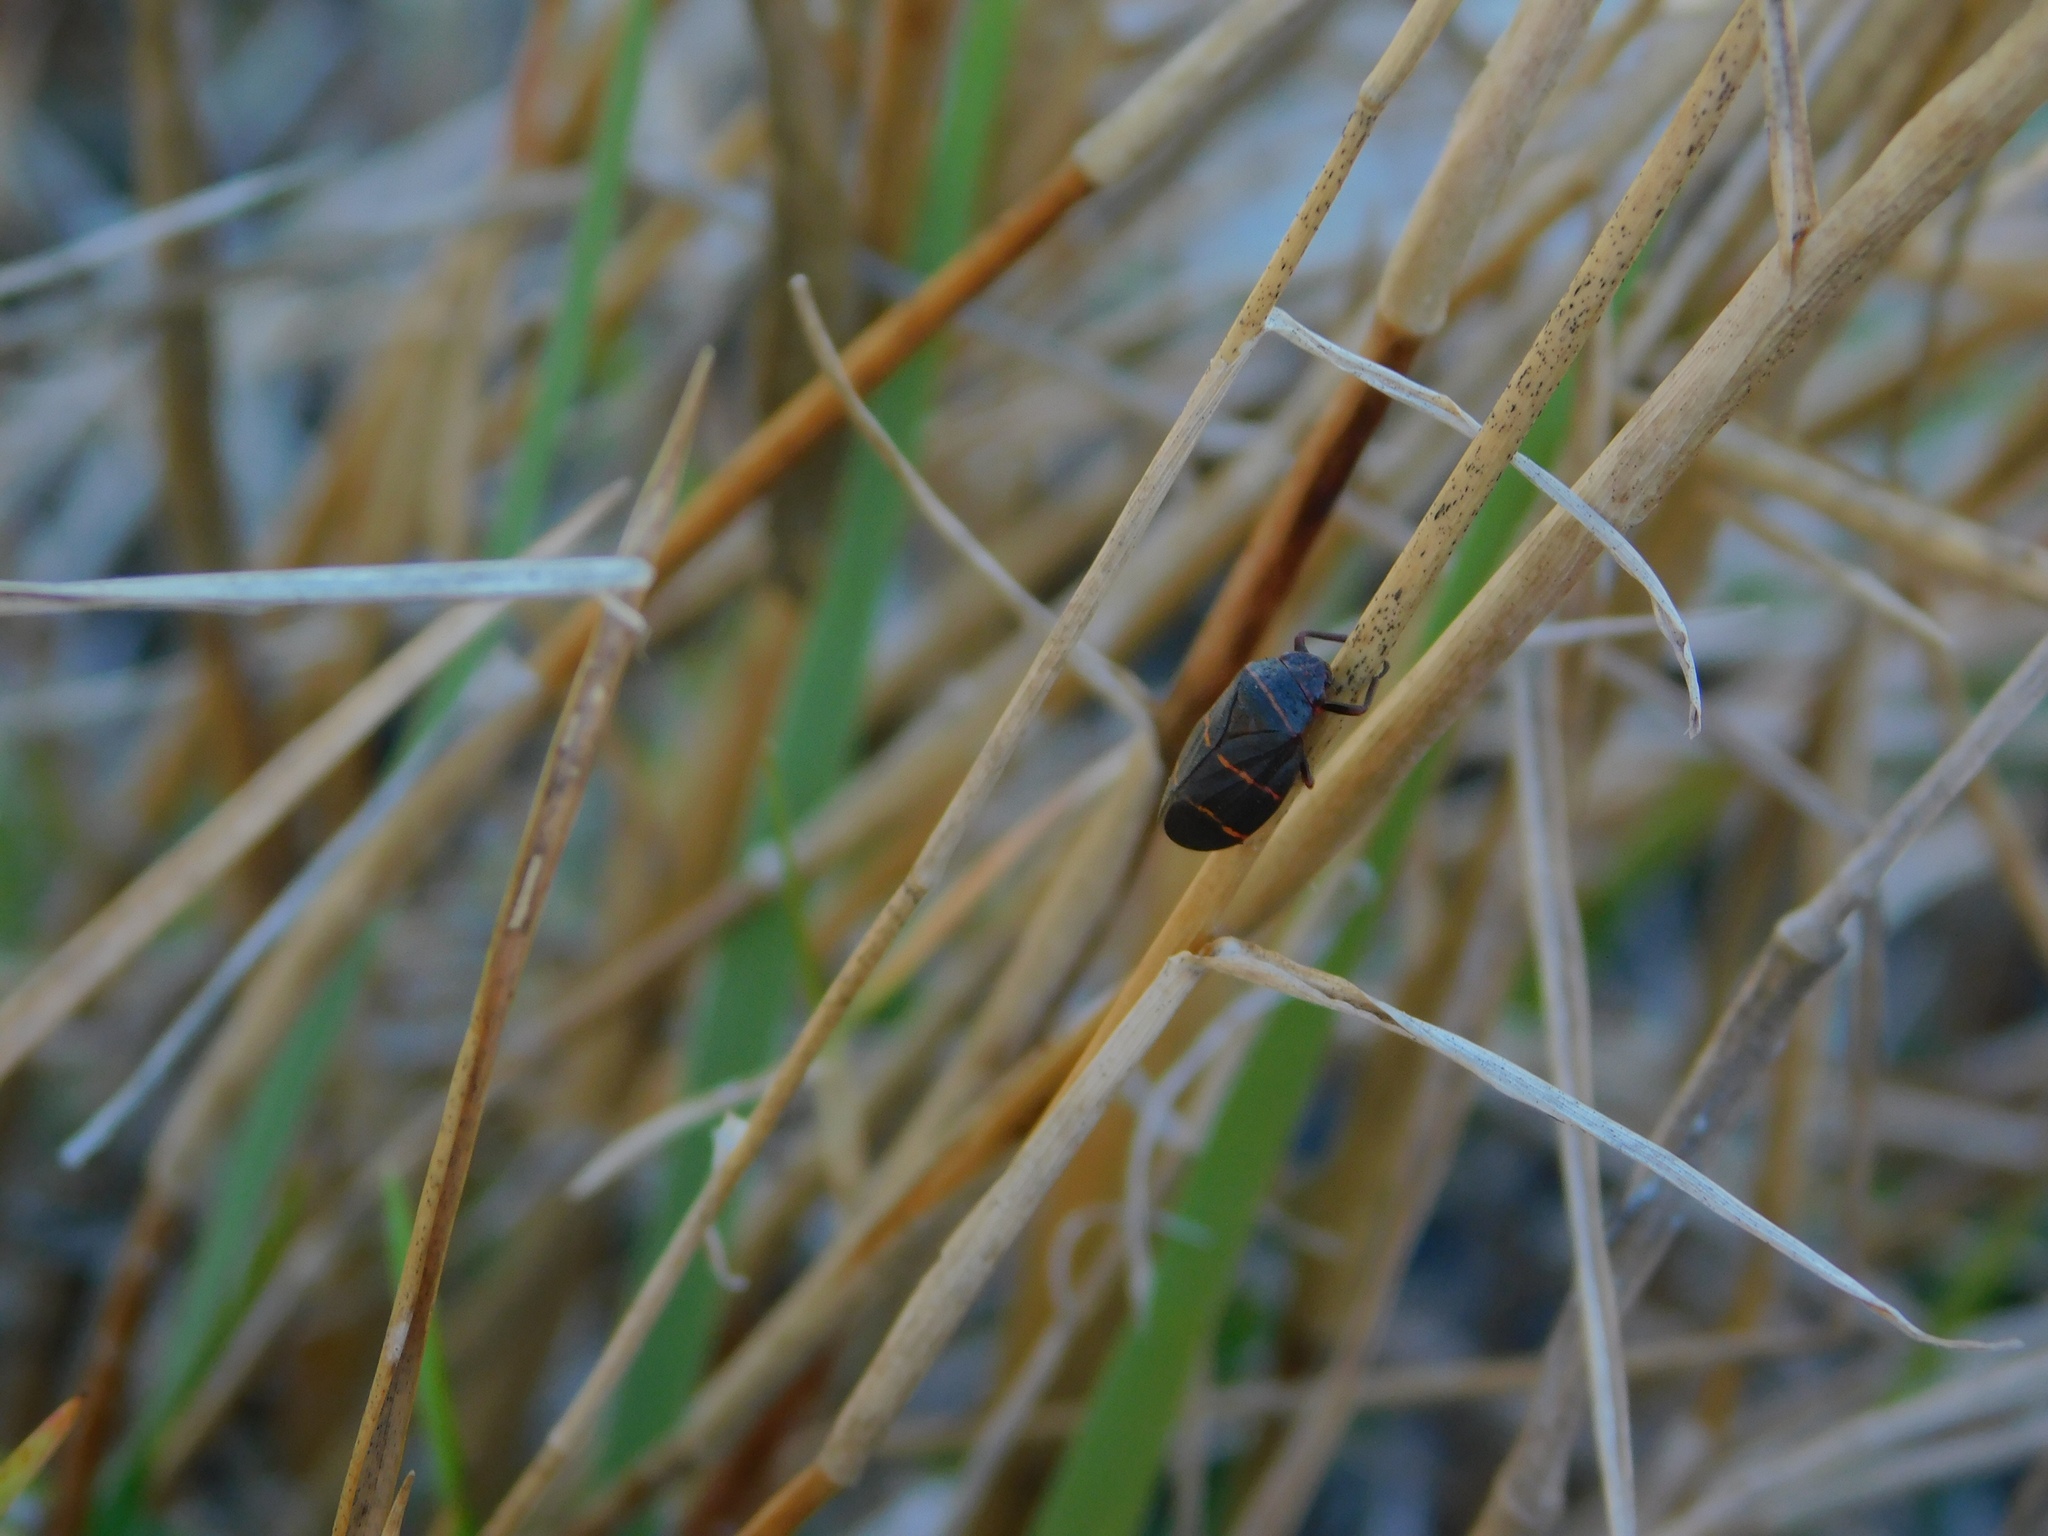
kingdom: Animalia
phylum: Arthropoda
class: Insecta
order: Hemiptera
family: Cercopidae
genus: Prosapia
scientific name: Prosapia bicincta
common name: Twolined spittlebug
